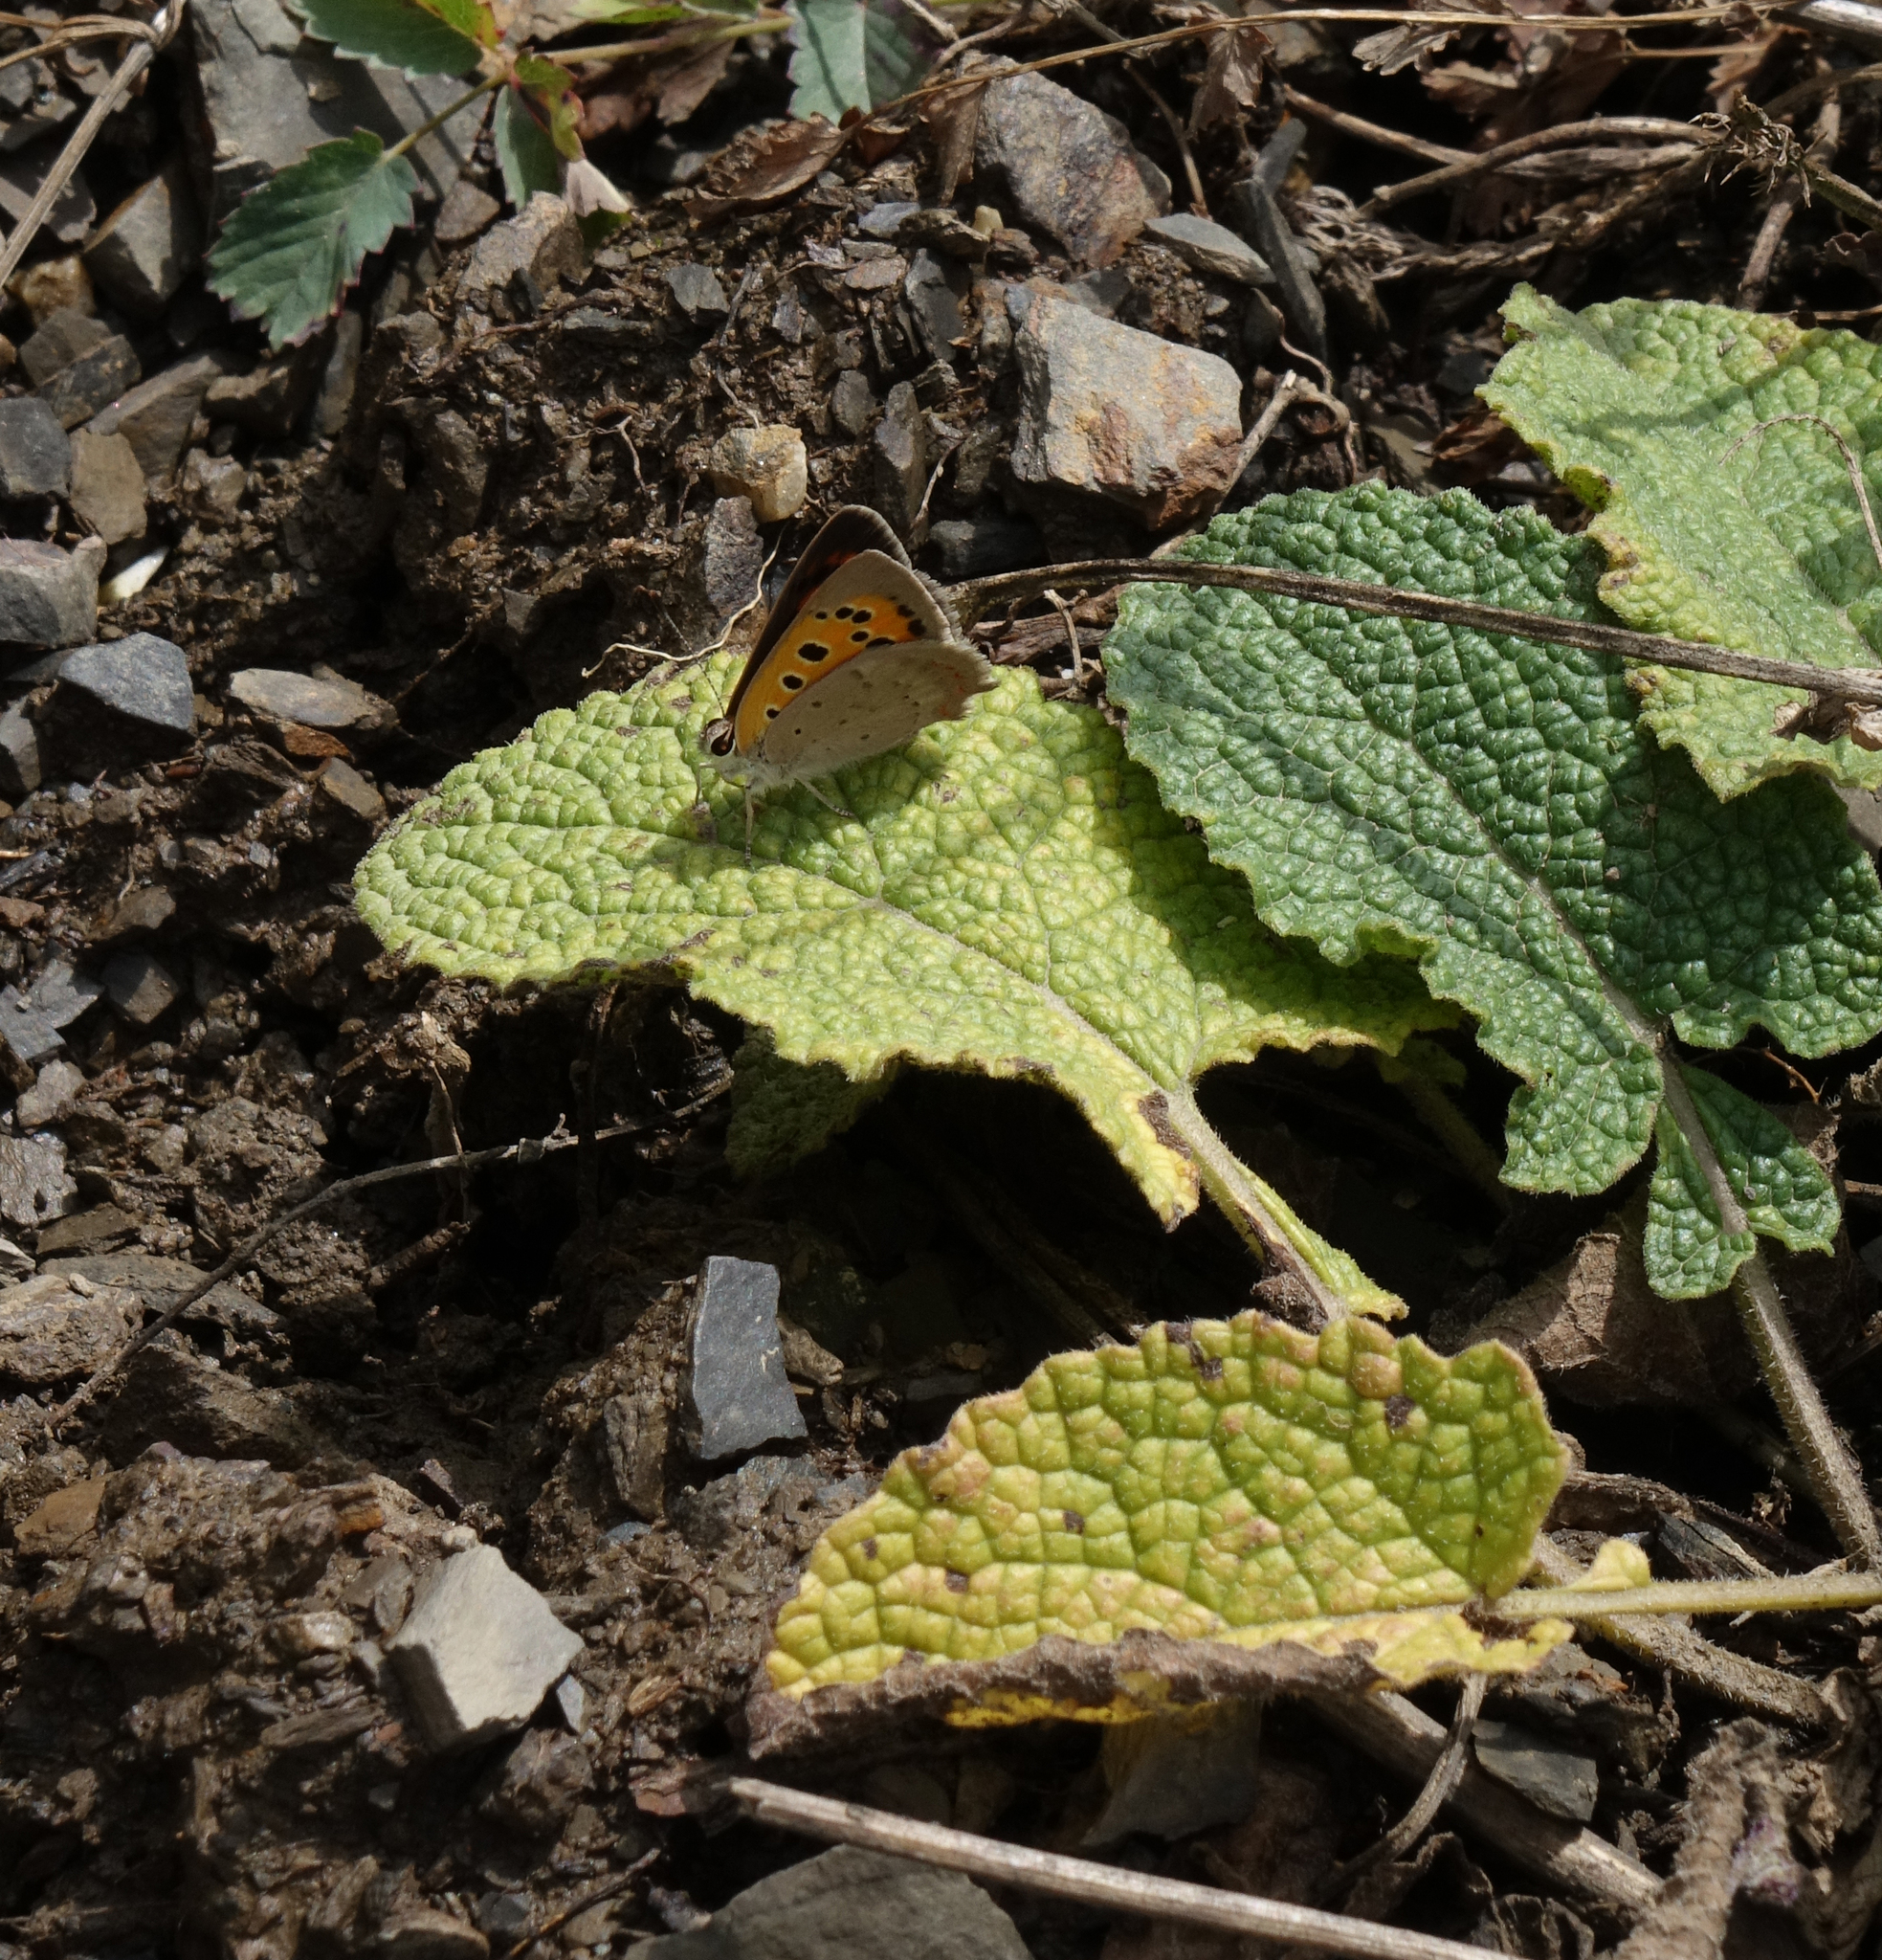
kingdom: Plantae
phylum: Tracheophyta
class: Magnoliopsida
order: Lamiales
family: Lamiaceae
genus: Salvia
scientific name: Salvia verticillata
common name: Whorled clary
